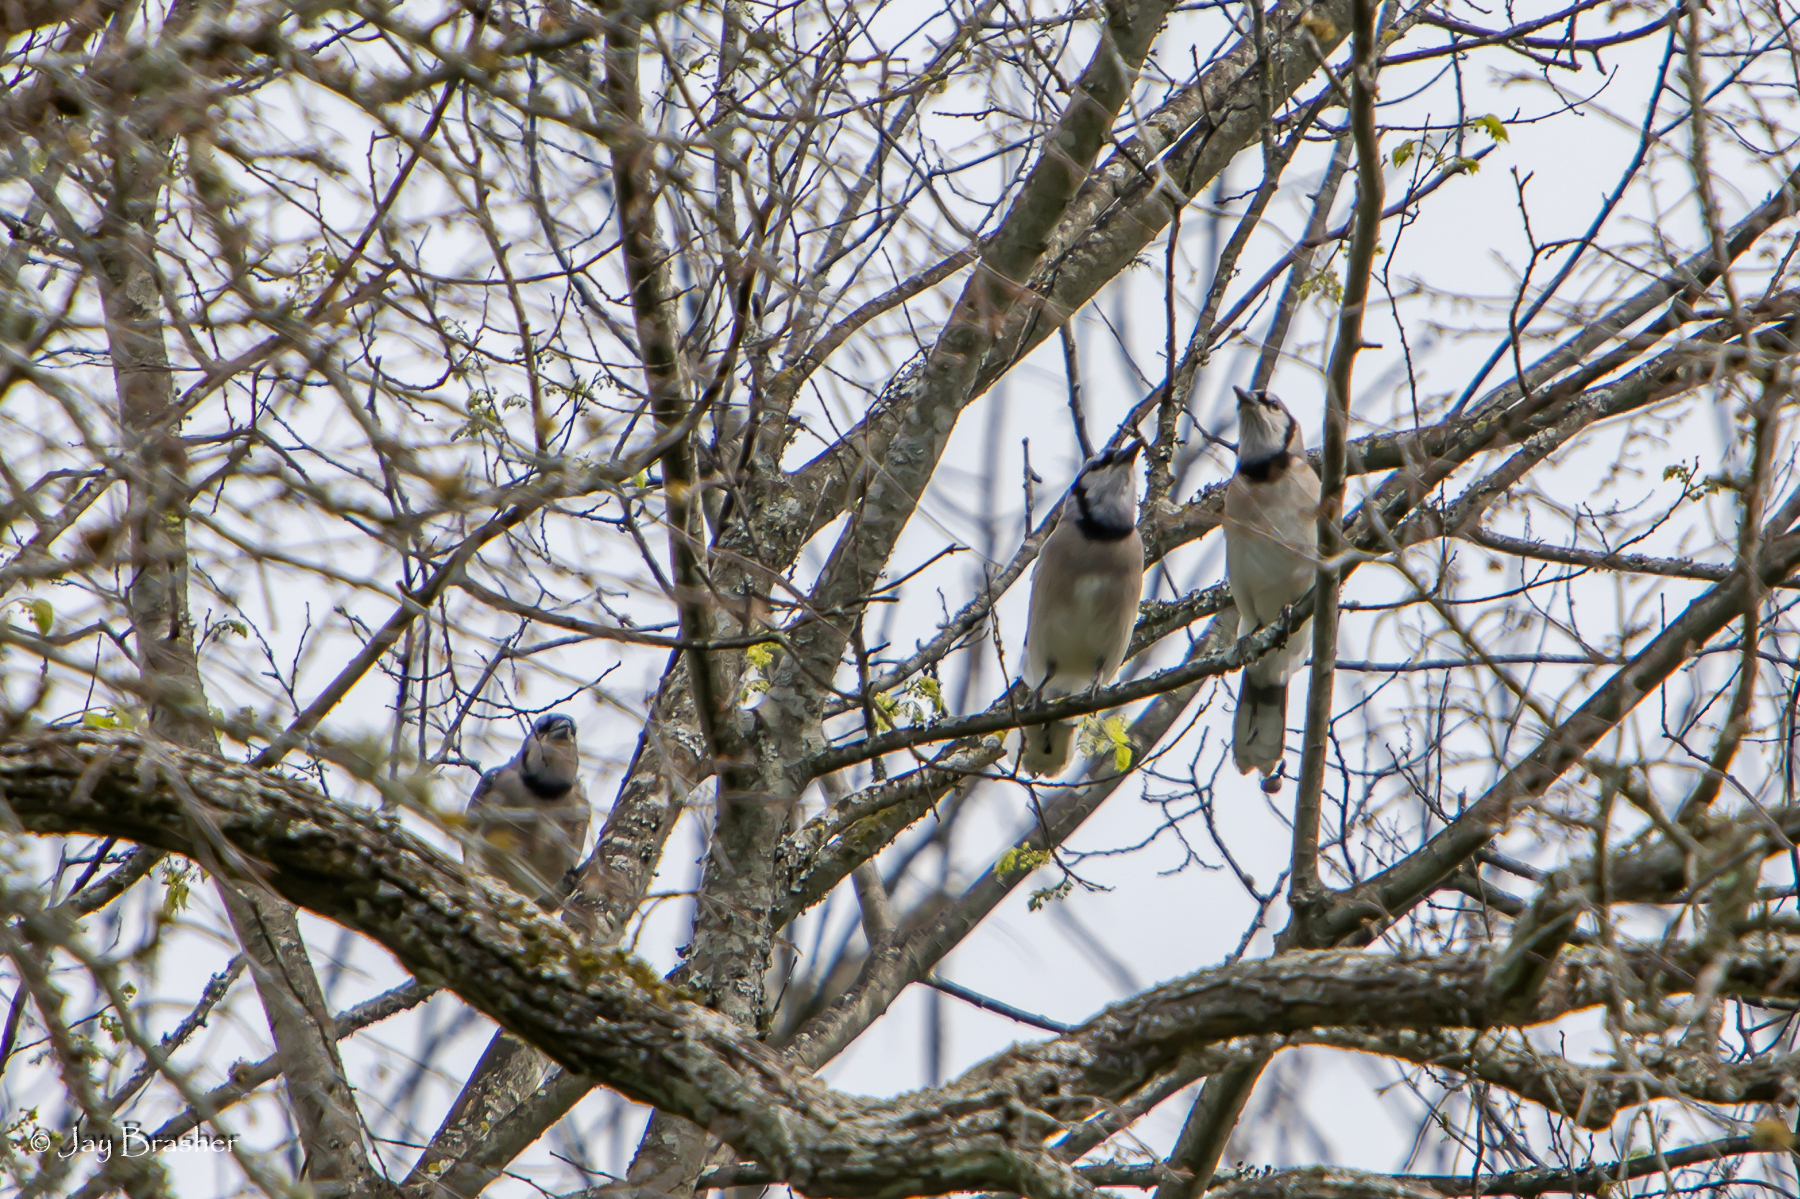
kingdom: Animalia
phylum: Chordata
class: Aves
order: Passeriformes
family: Corvidae
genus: Cyanocitta
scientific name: Cyanocitta cristata
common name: Blue jay
